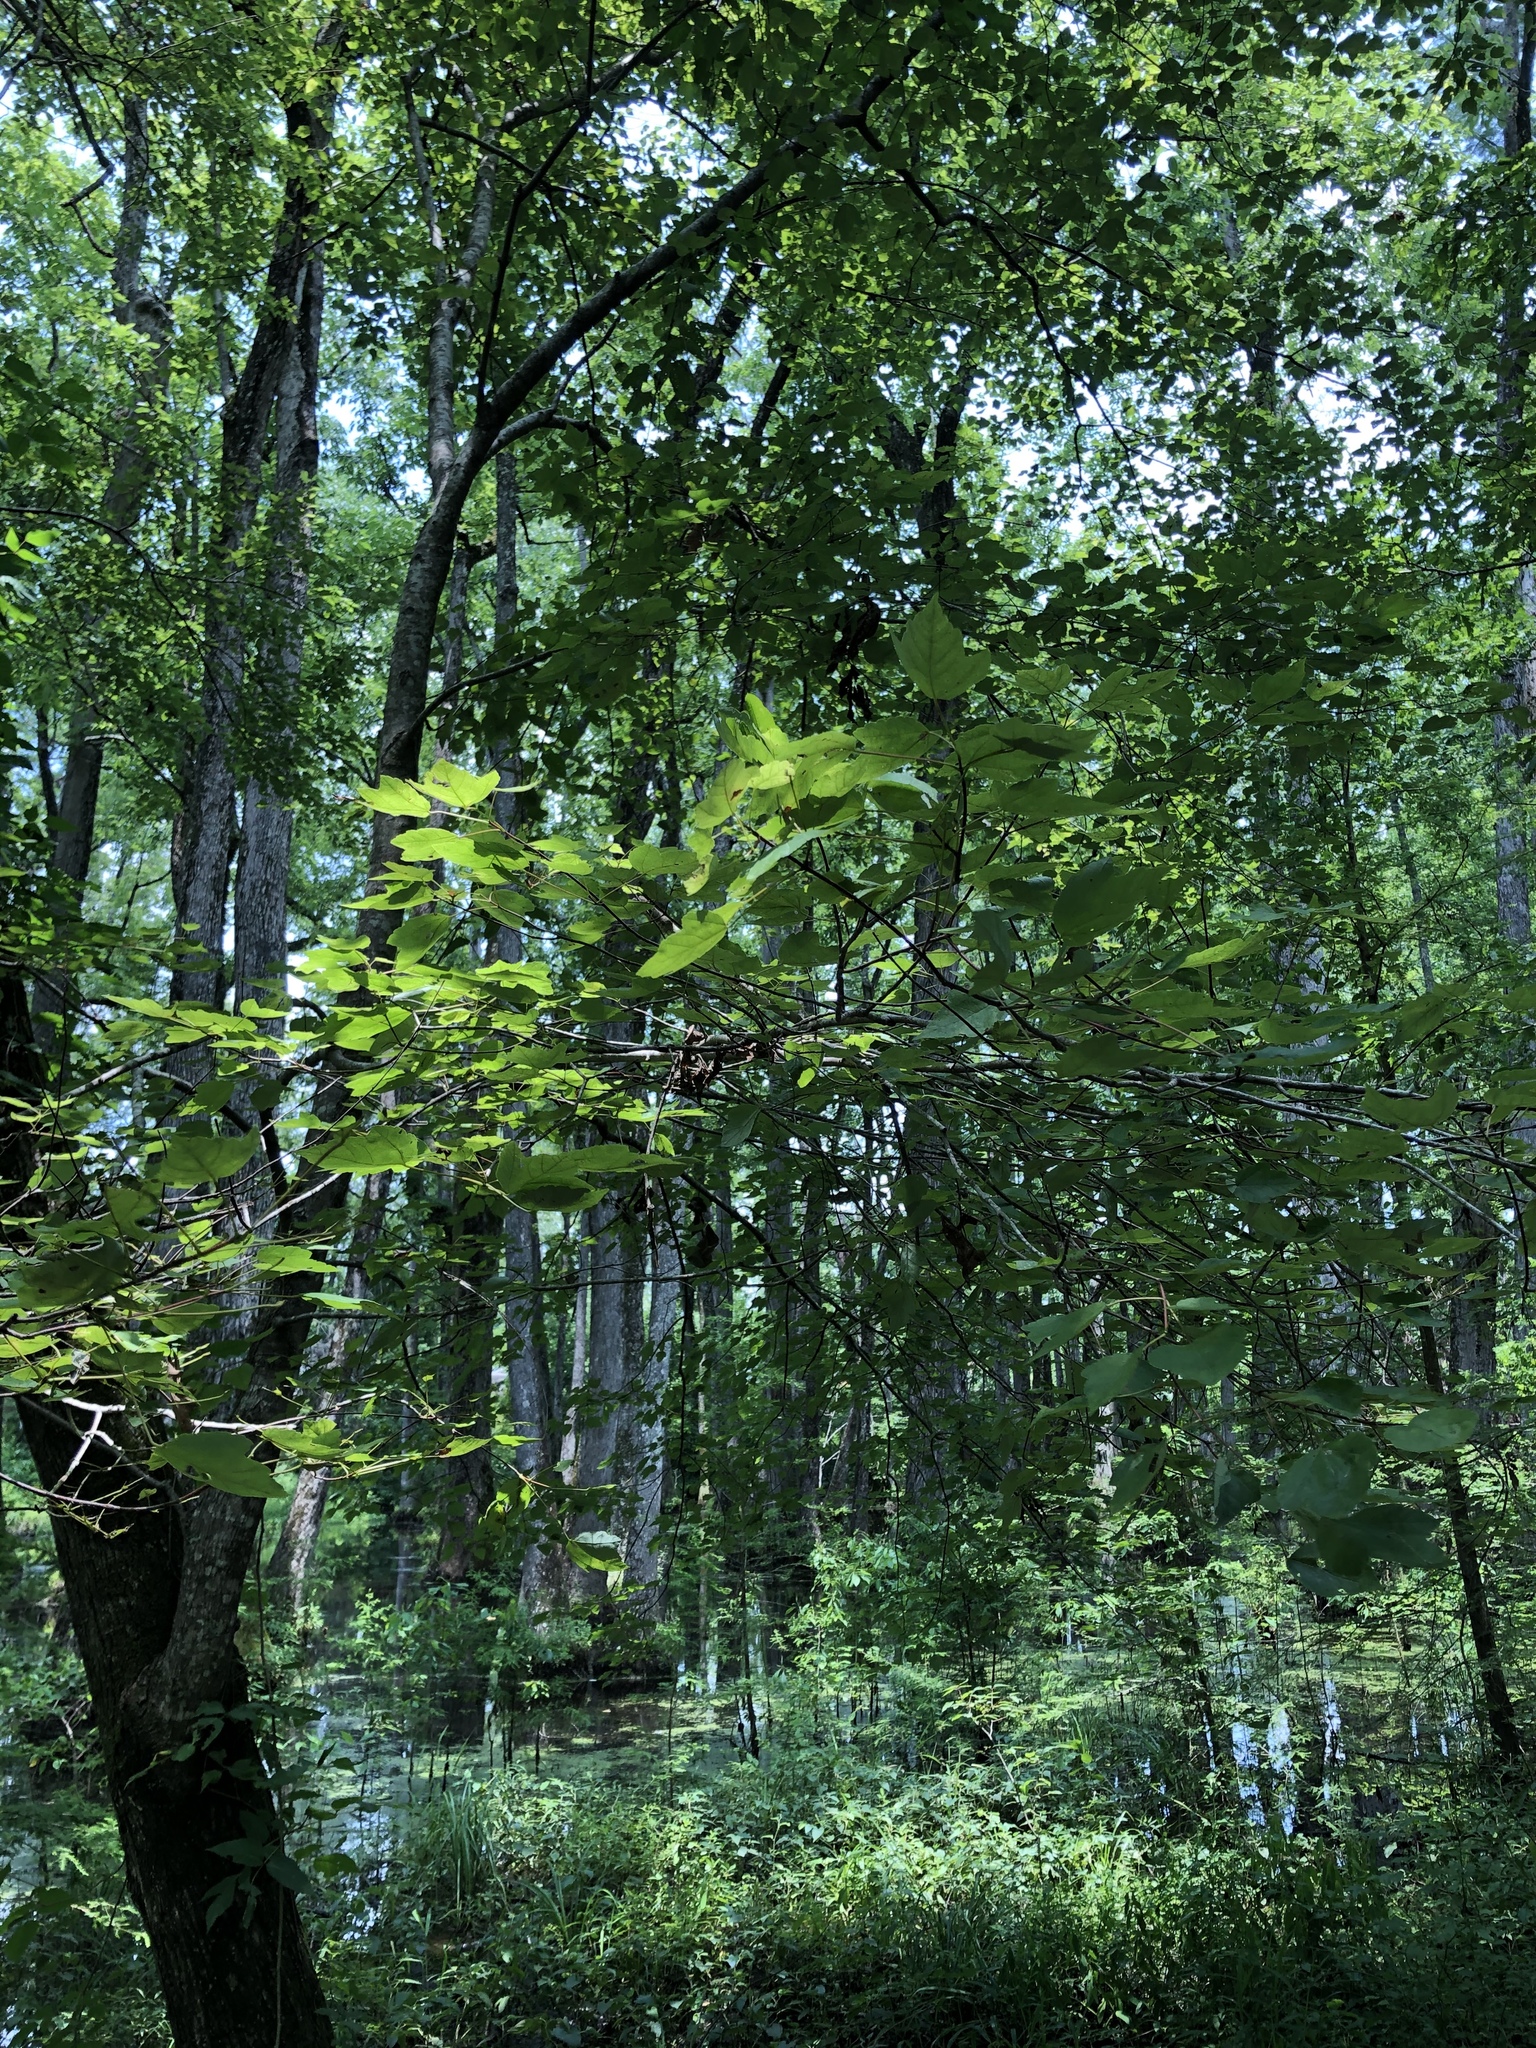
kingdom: Plantae
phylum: Tracheophyta
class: Magnoliopsida
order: Sapindales
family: Sapindaceae
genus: Acer
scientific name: Acer rubrum
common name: Red maple
